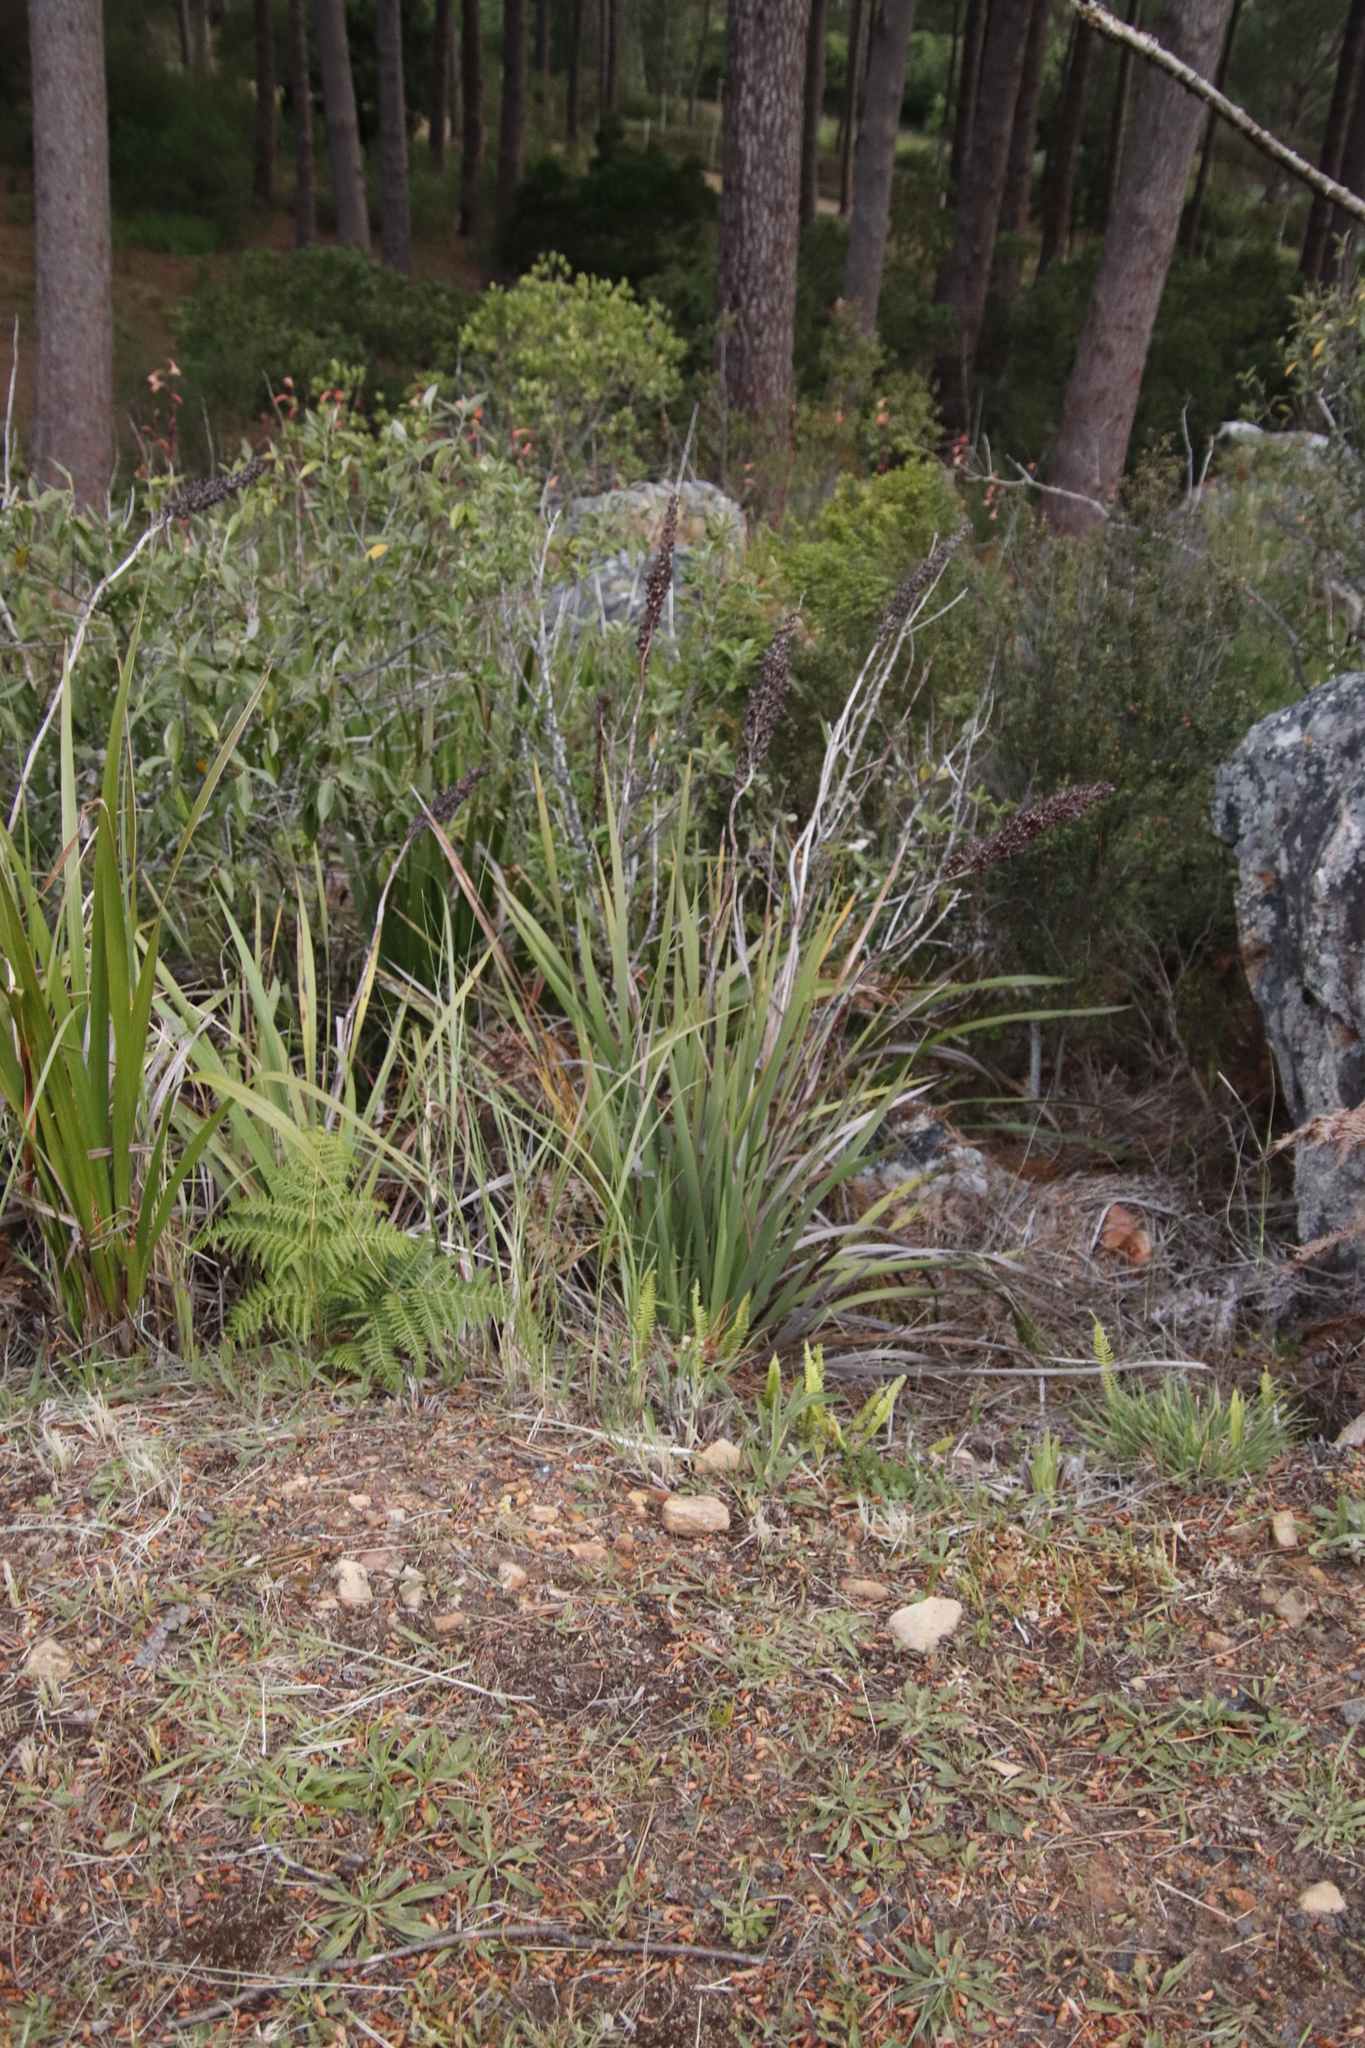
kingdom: Plantae
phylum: Tracheophyta
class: Liliopsida
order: Asparagales
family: Iridaceae
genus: Aristea
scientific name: Aristea capitata
